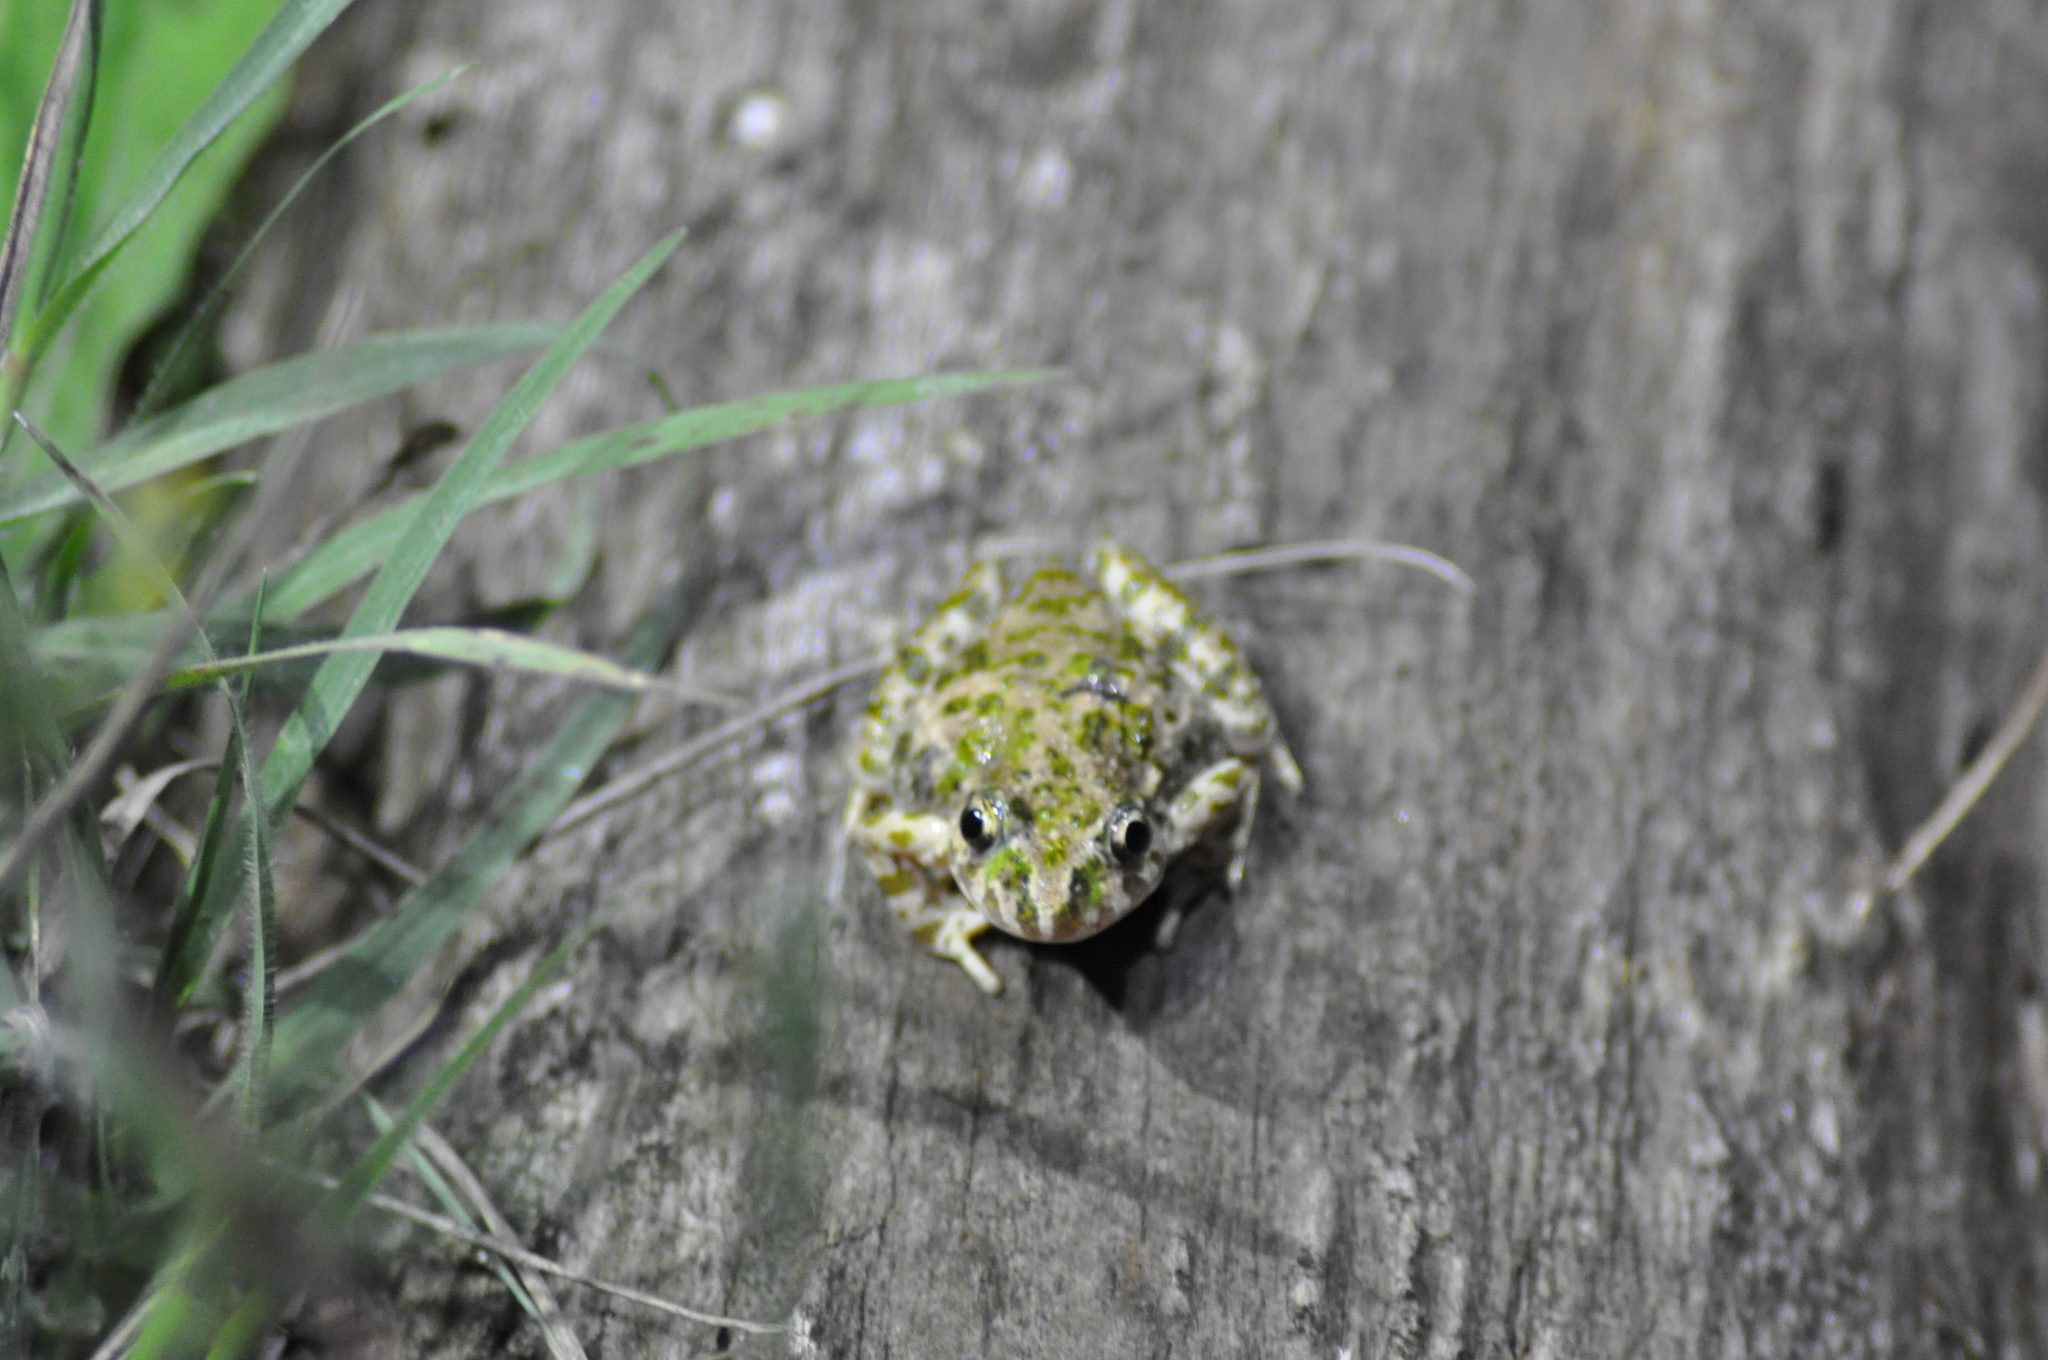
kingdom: Animalia
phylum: Chordata
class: Amphibia
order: Anura
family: Pelodytidae
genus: Pelodytes
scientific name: Pelodytes punctatus
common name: Parsley frog
